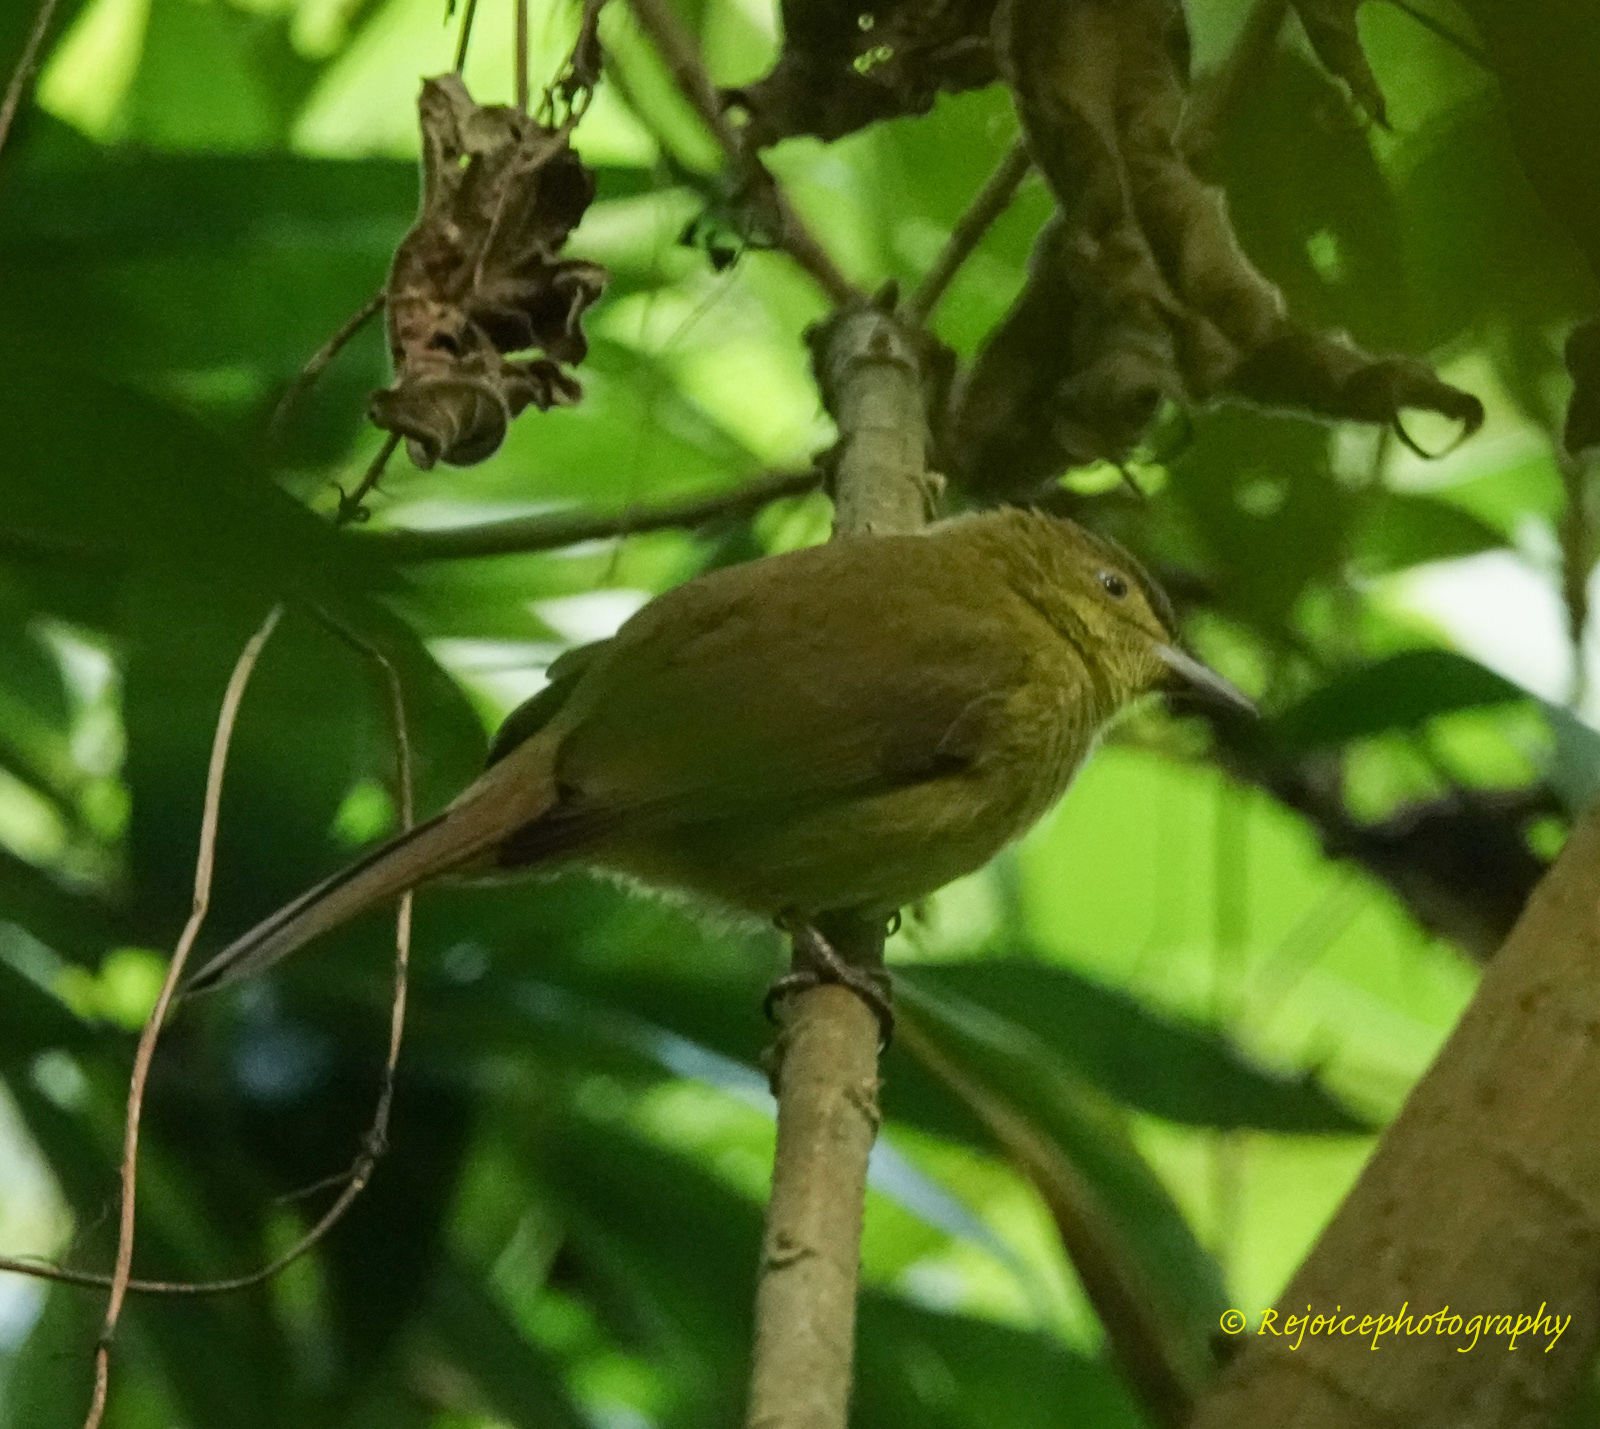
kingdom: Animalia
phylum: Chordata
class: Aves
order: Passeriformes
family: Pycnonotidae
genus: Iole
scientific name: Iole virescens
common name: Olive bulbul
